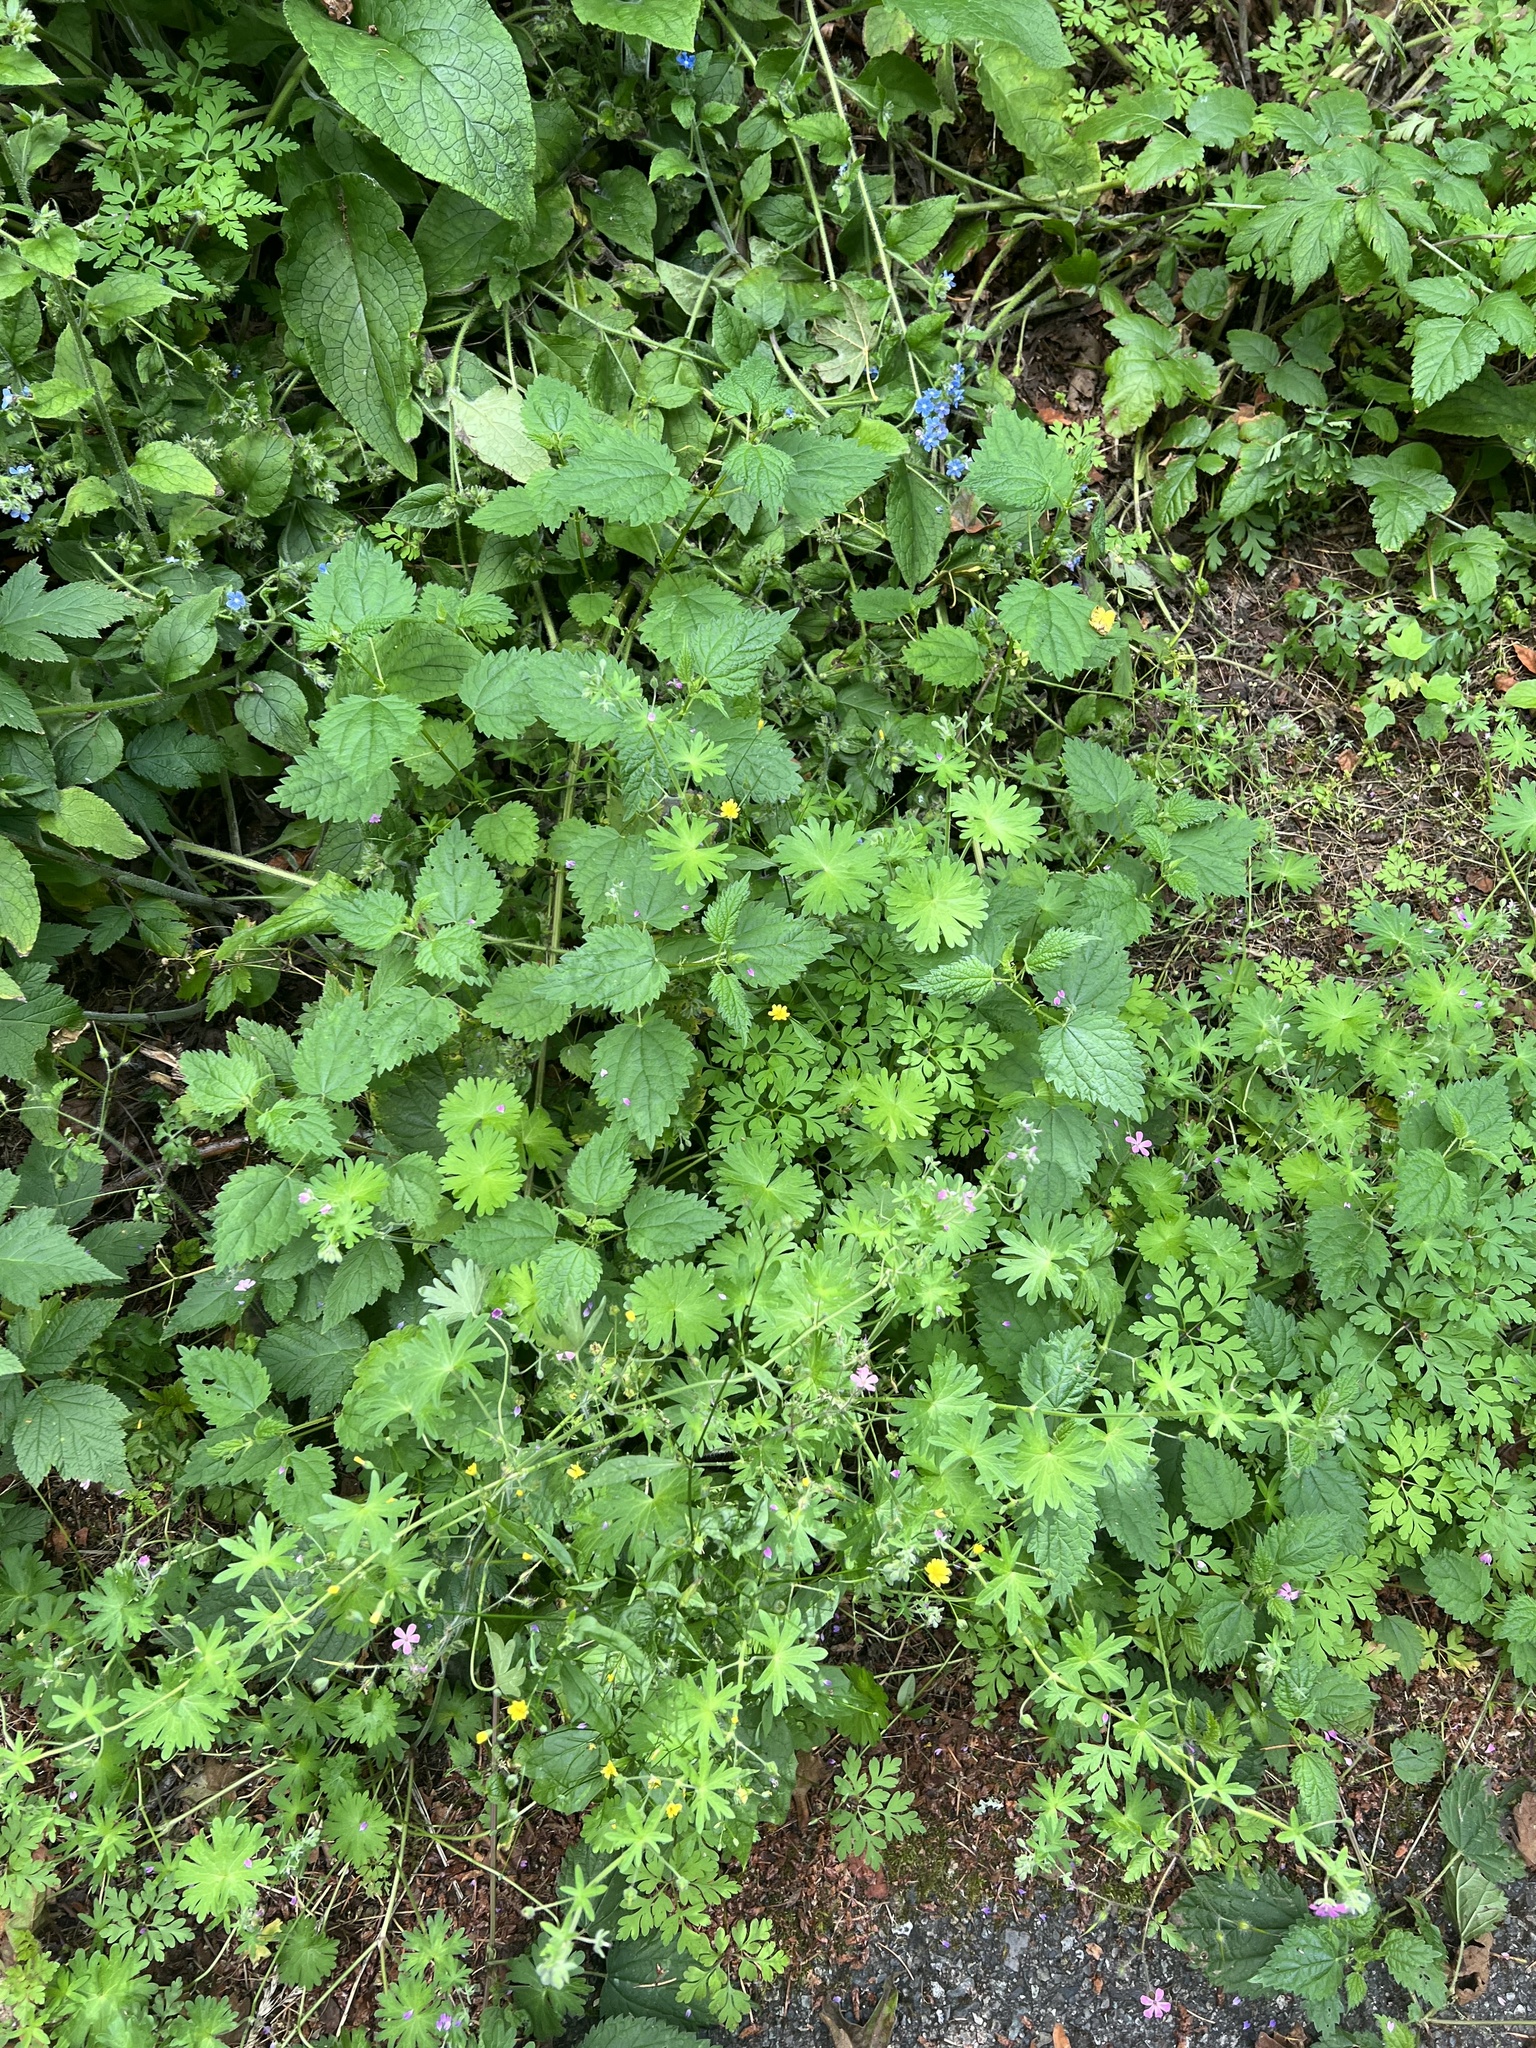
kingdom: Plantae
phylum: Tracheophyta
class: Magnoliopsida
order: Geraniales
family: Geraniaceae
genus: Geranium
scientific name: Geranium molle
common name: Dove's-foot crane's-bill
